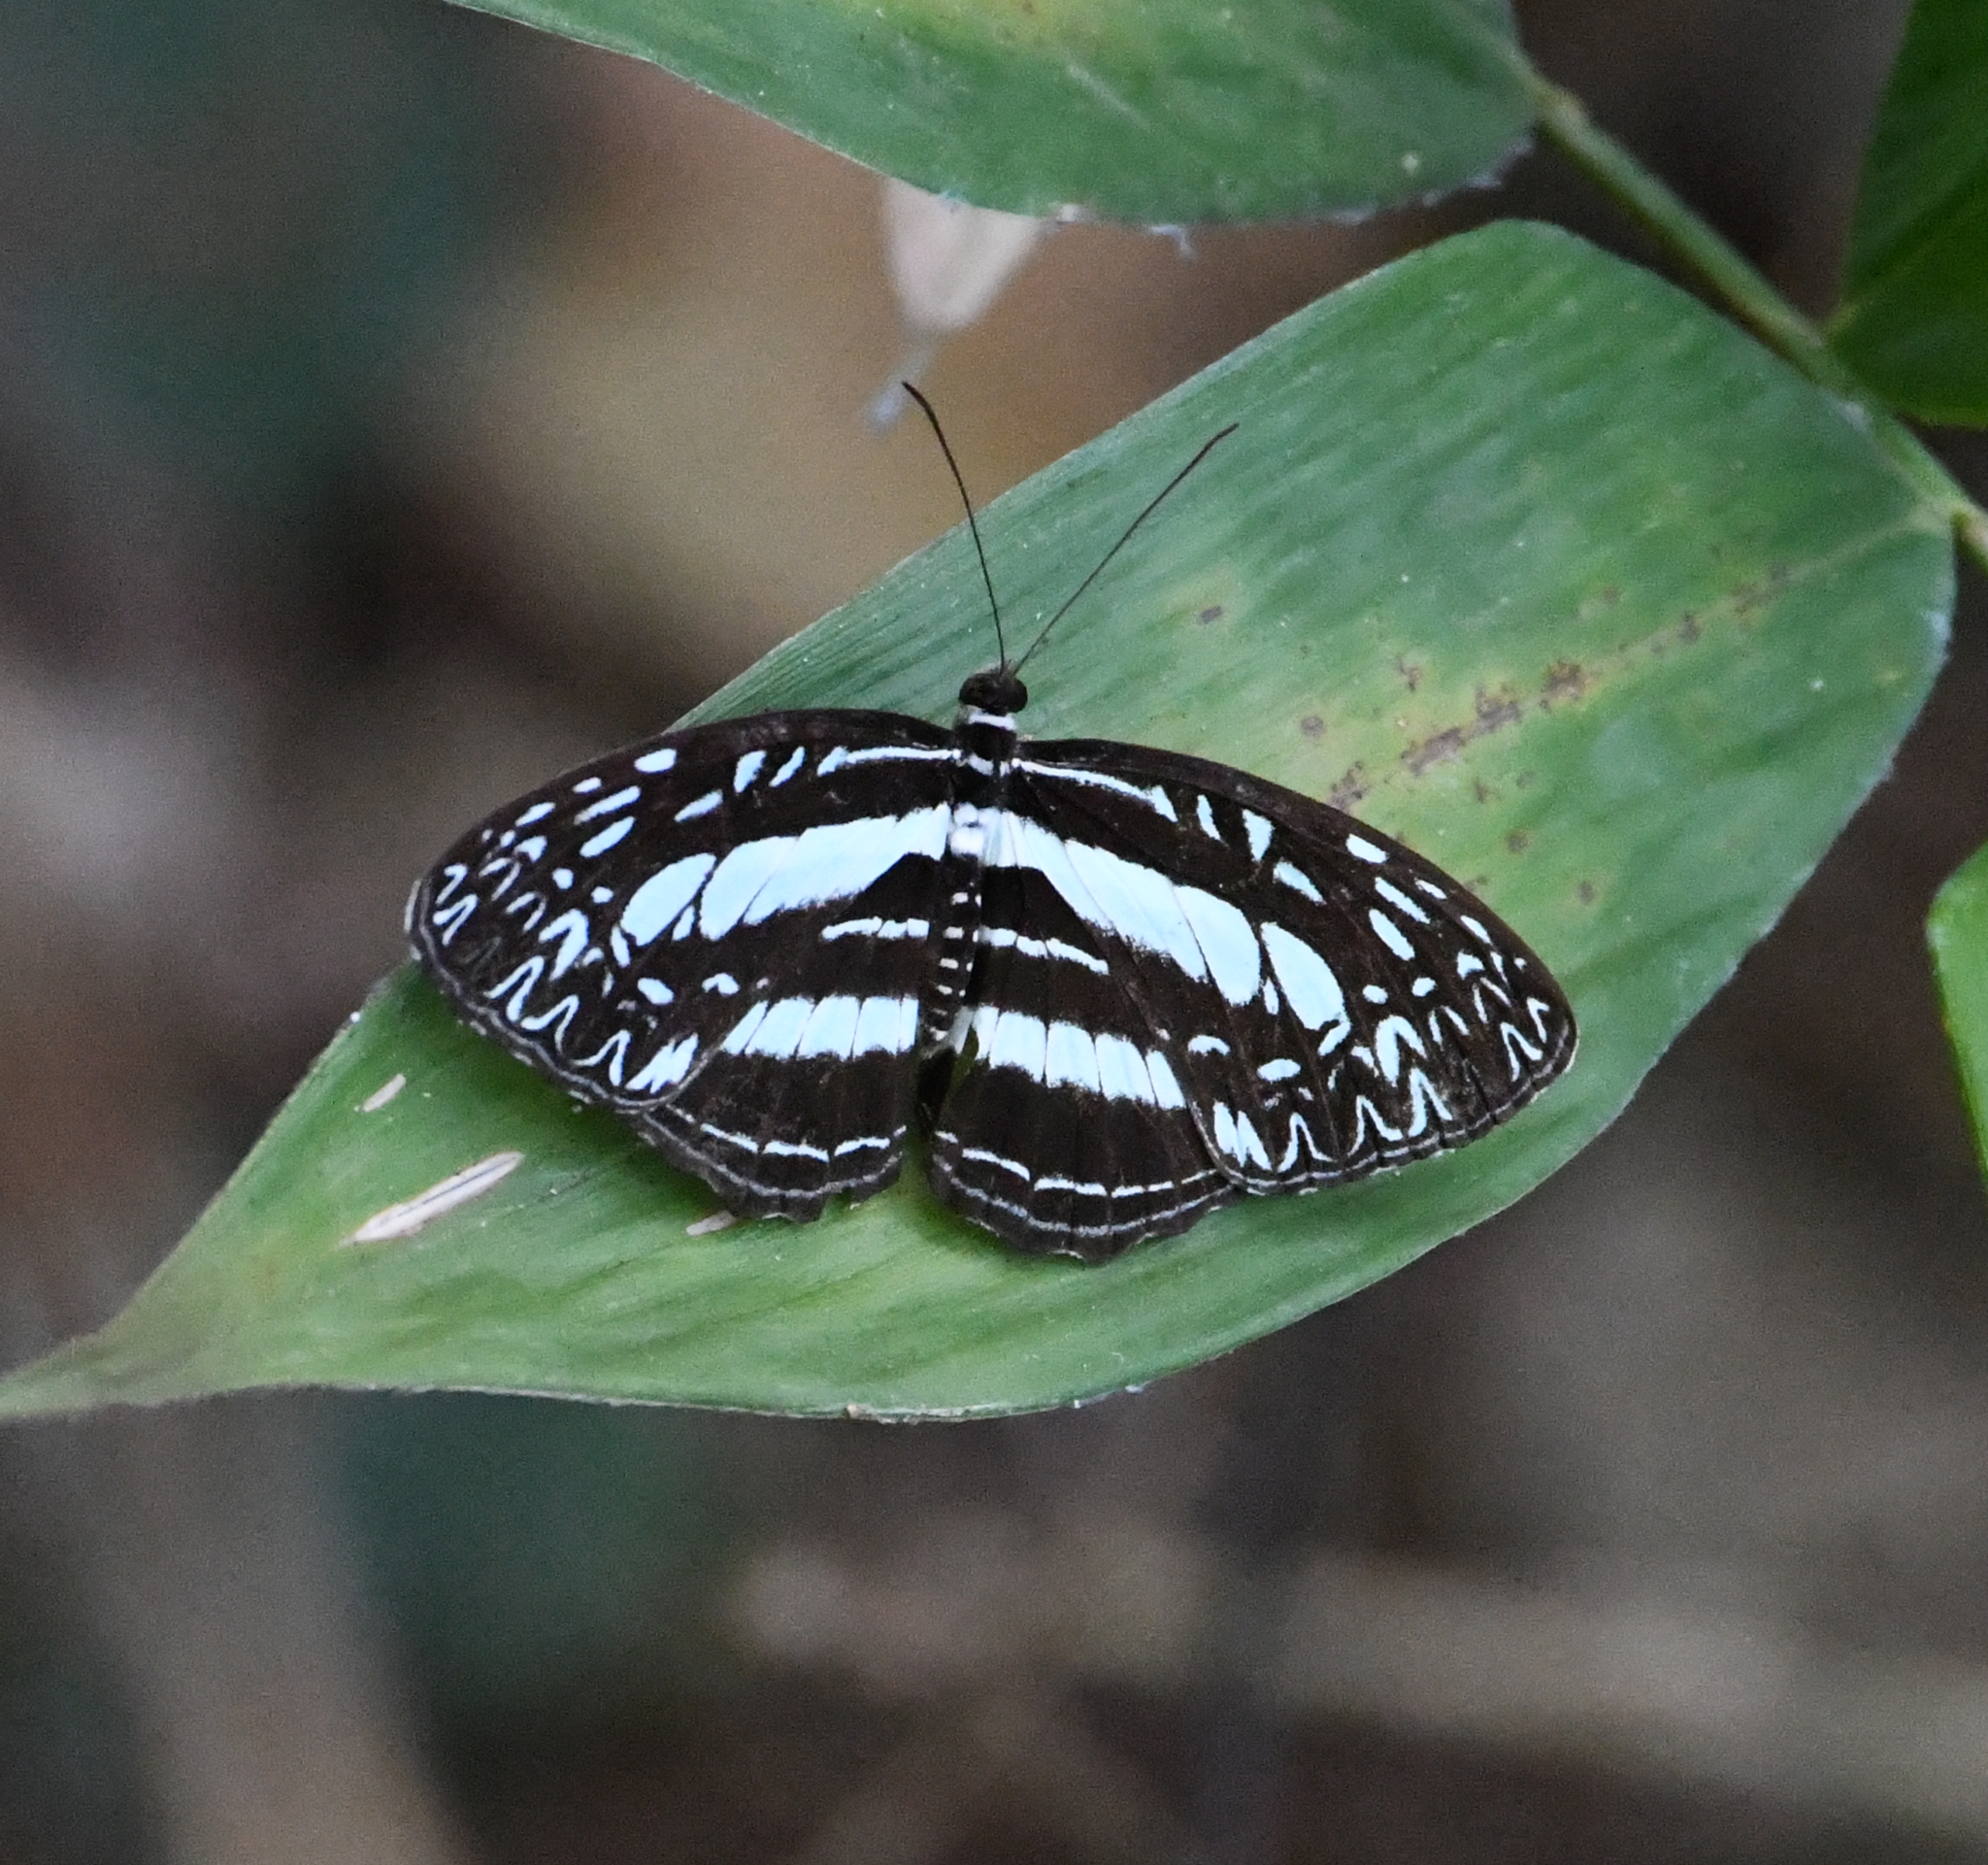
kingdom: Animalia
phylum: Arthropoda
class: Insecta
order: Lepidoptera
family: Nymphalidae
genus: Pseudoneptis
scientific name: Pseudoneptis bugandensis
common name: Blue sailer
